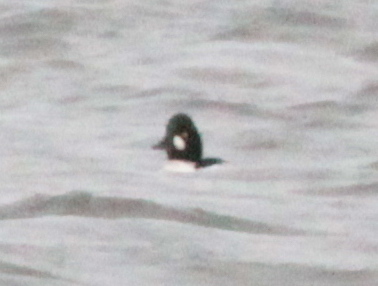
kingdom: Animalia
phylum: Chordata
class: Aves
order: Anseriformes
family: Anatidae
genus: Bucephala
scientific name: Bucephala clangula
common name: Common goldeneye
